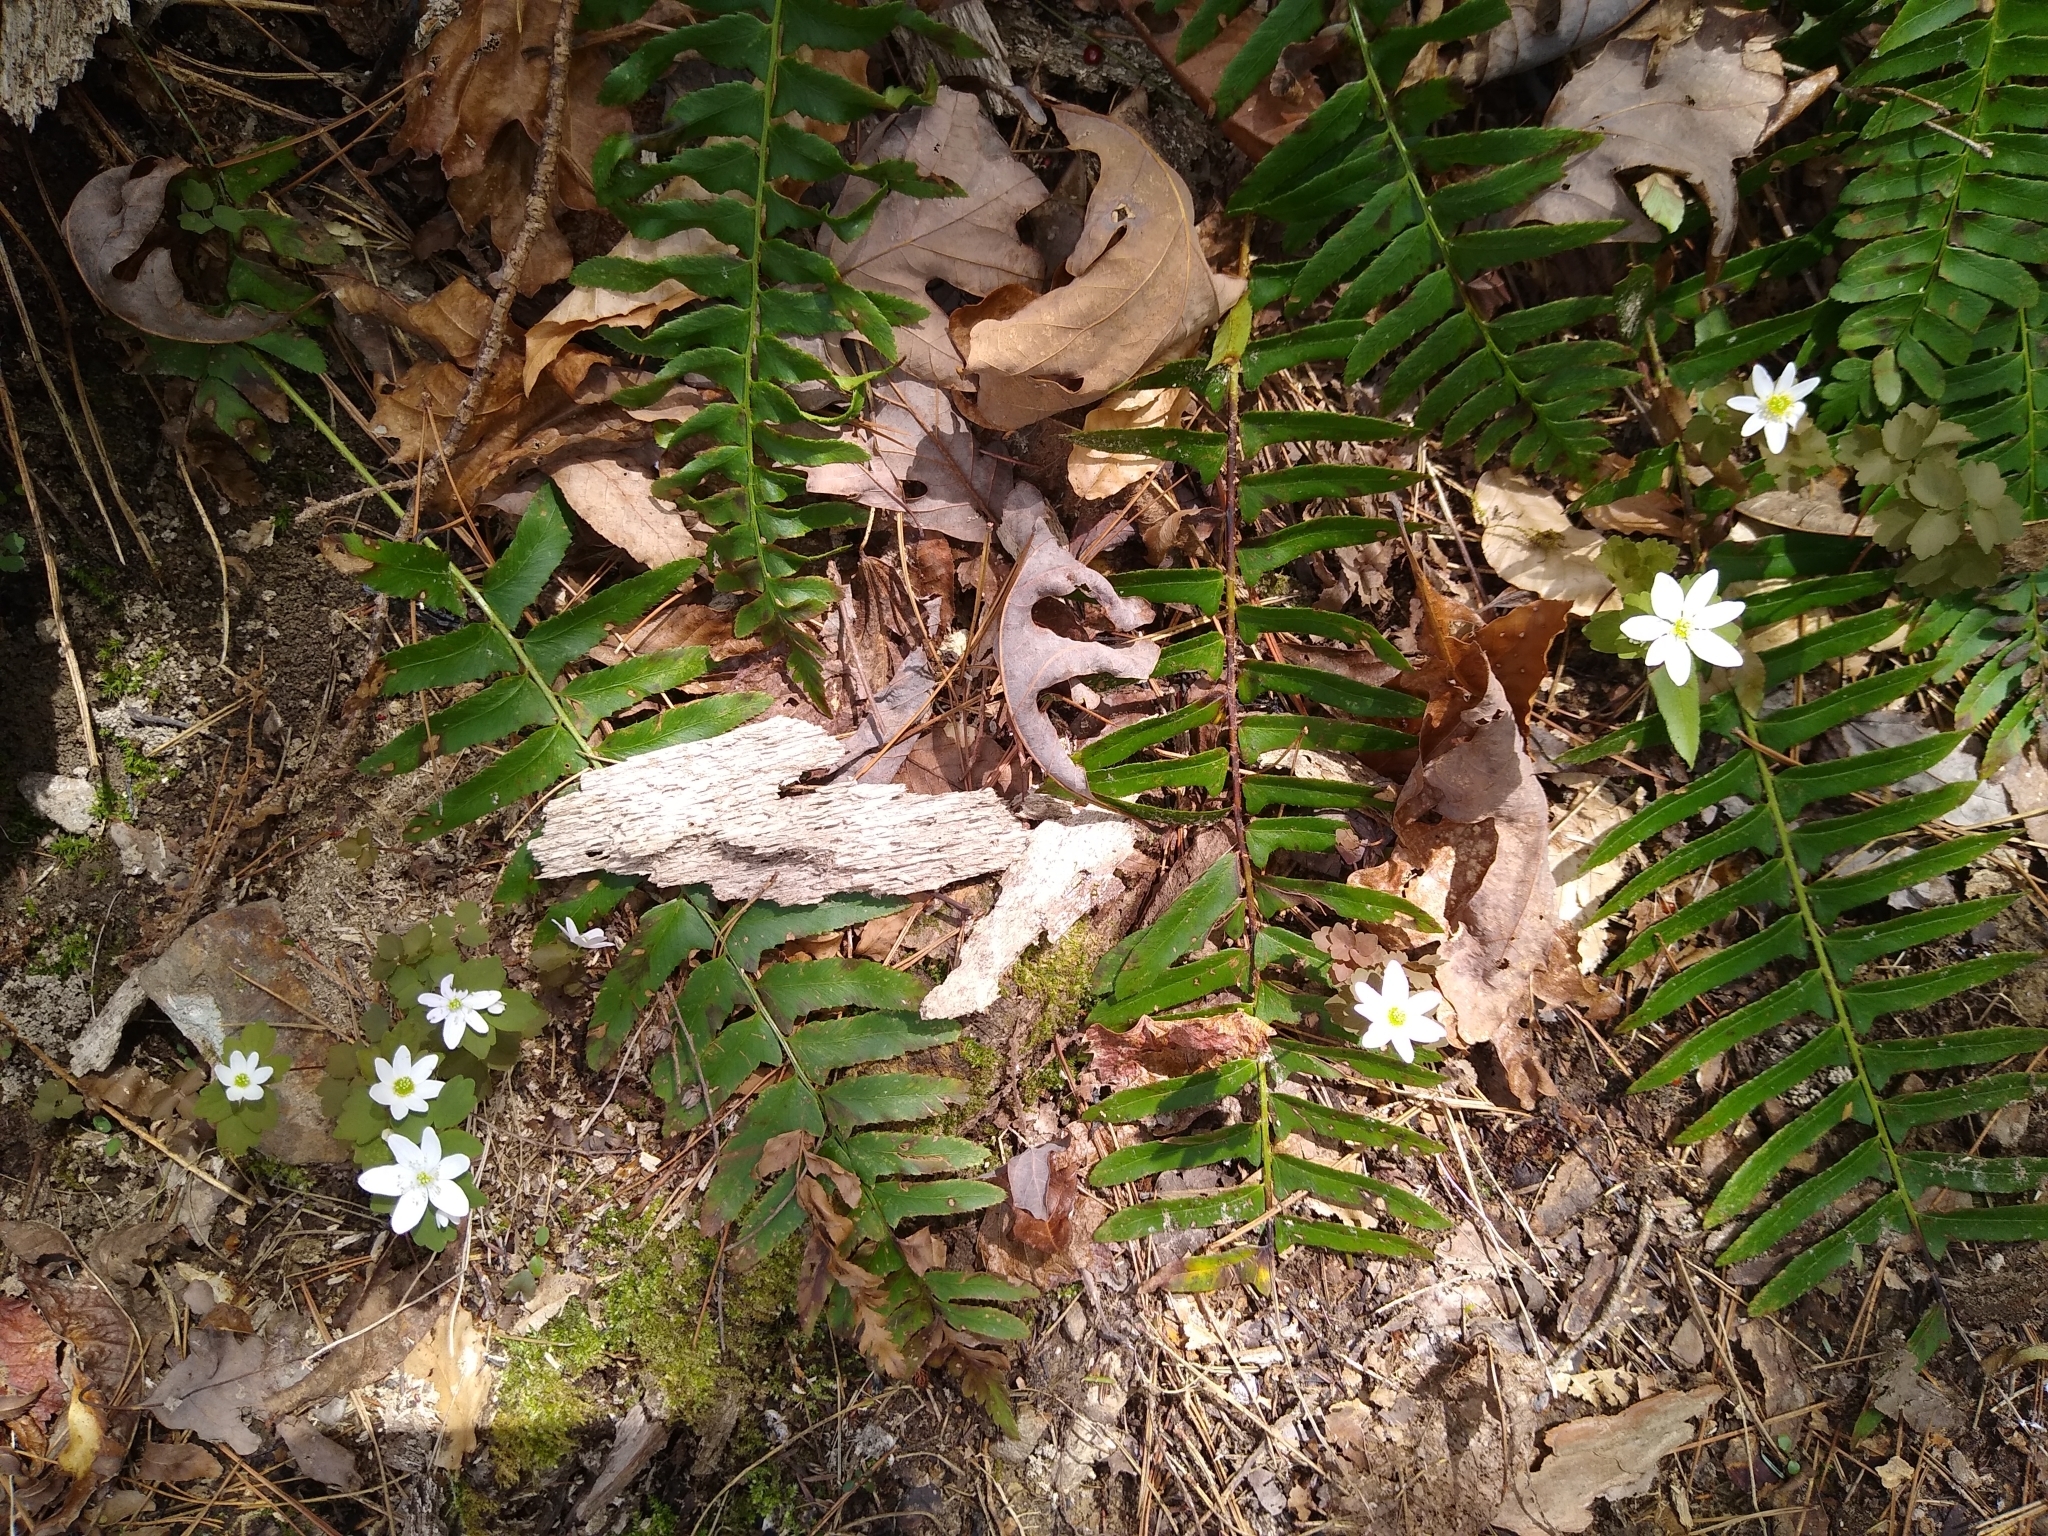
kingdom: Plantae
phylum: Tracheophyta
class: Magnoliopsida
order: Ranunculales
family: Ranunculaceae
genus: Thalictrum
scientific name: Thalictrum thalictroides
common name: Rue-anemone
